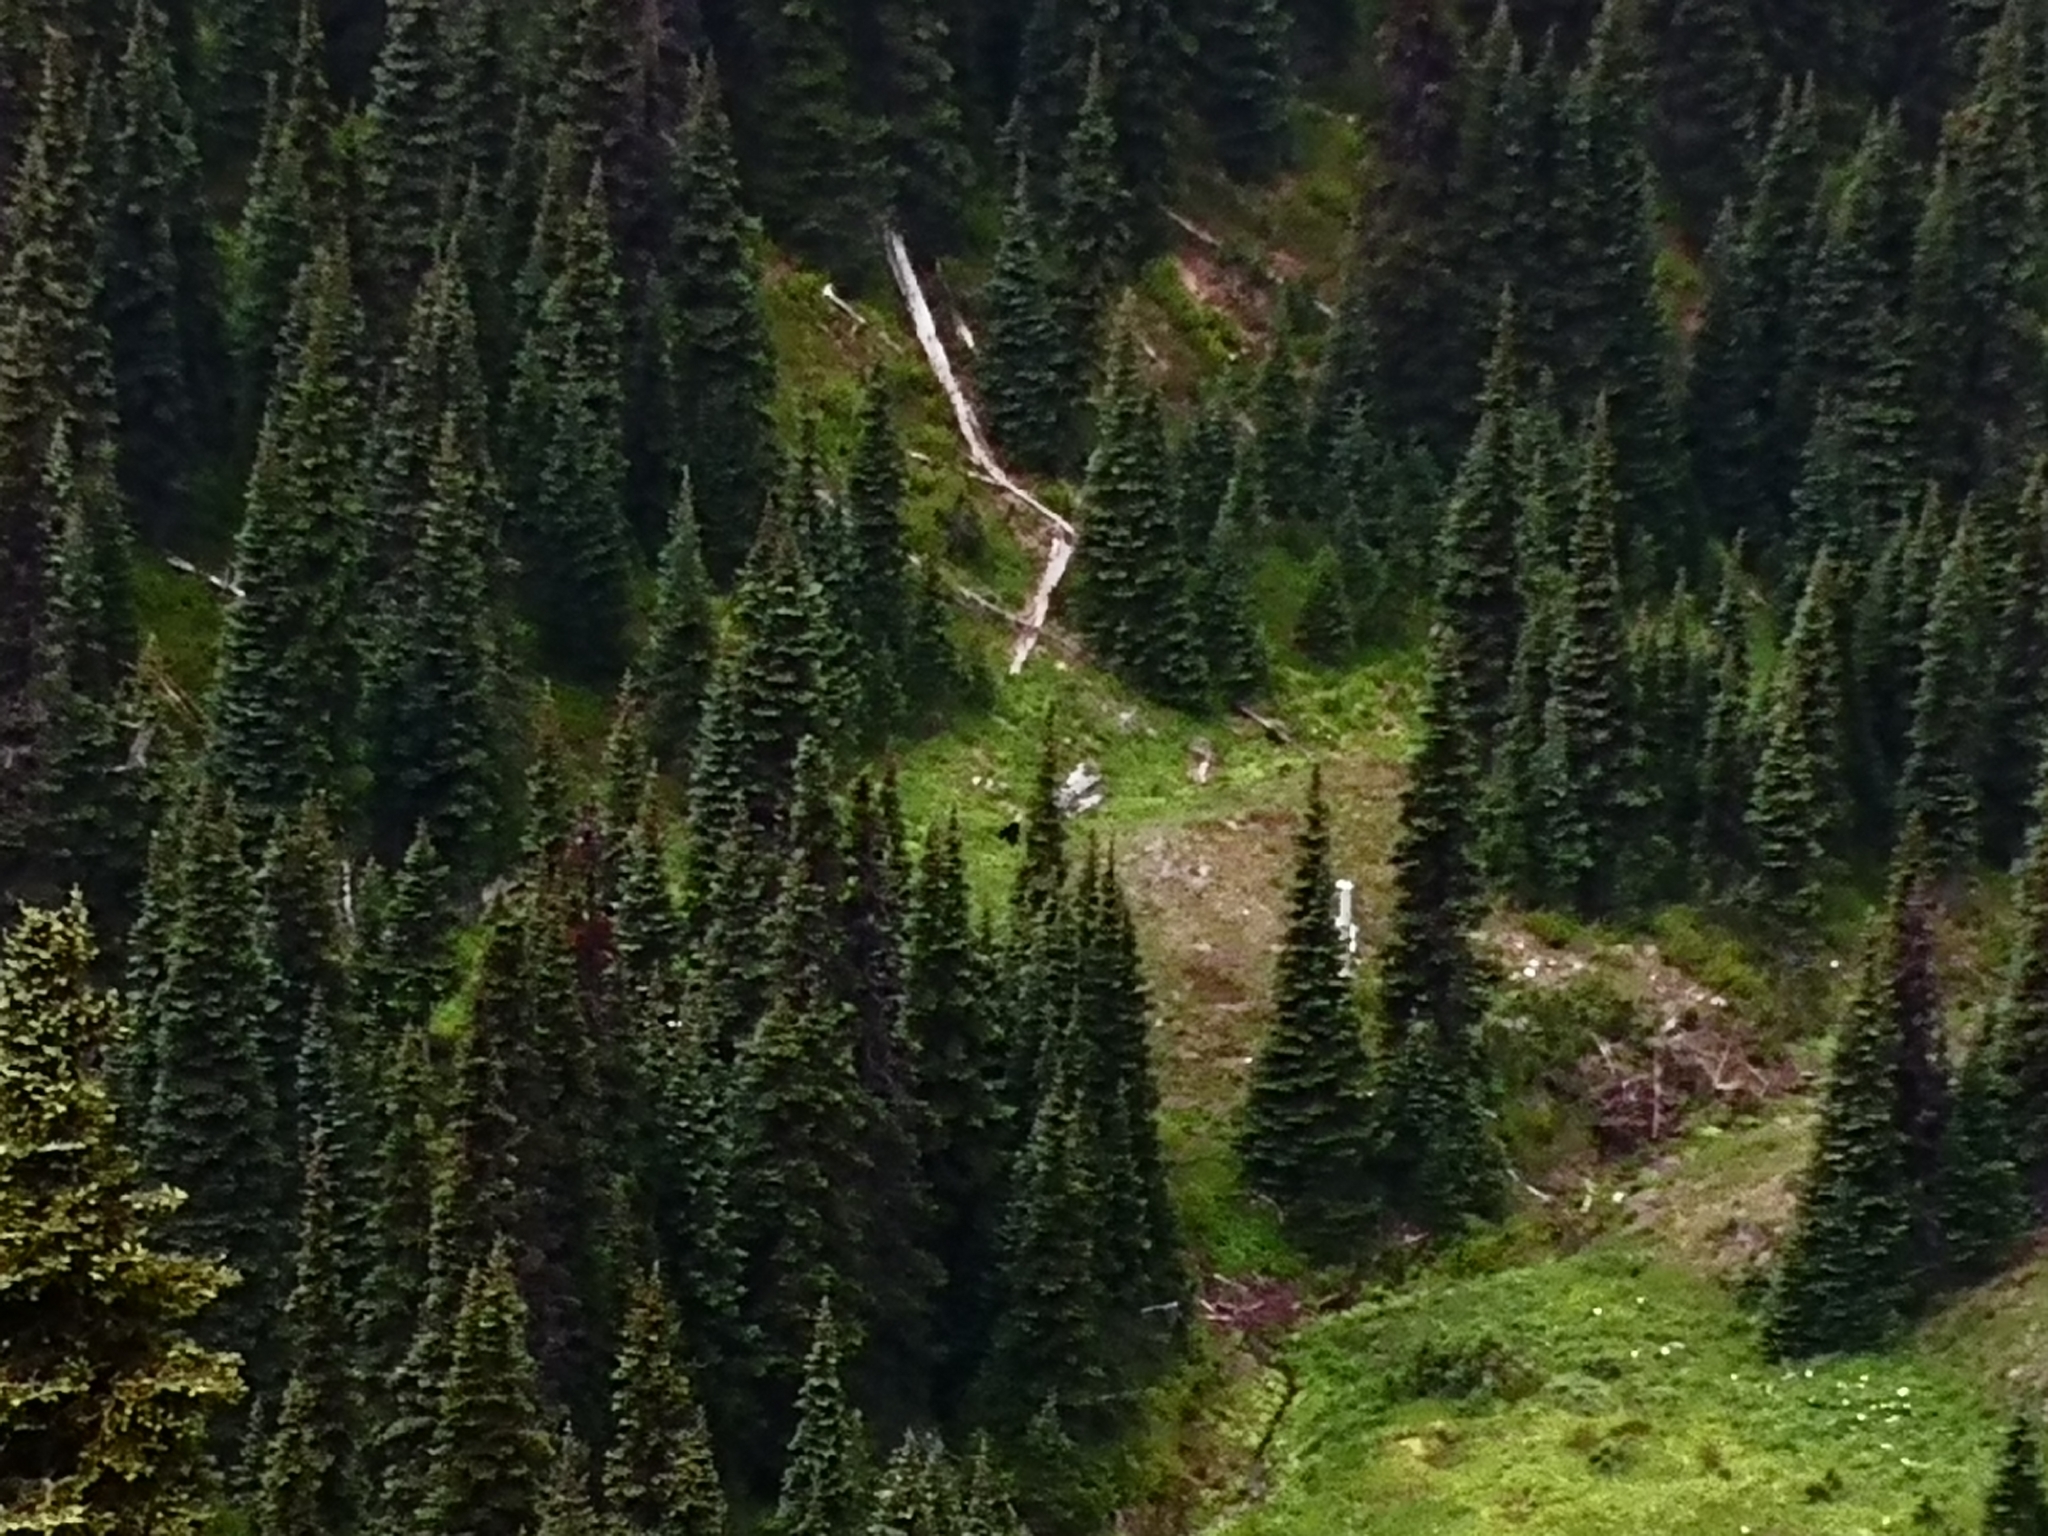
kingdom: Animalia
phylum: Chordata
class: Mammalia
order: Carnivora
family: Ursidae
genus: Ursus
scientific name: Ursus americanus
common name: American black bear
